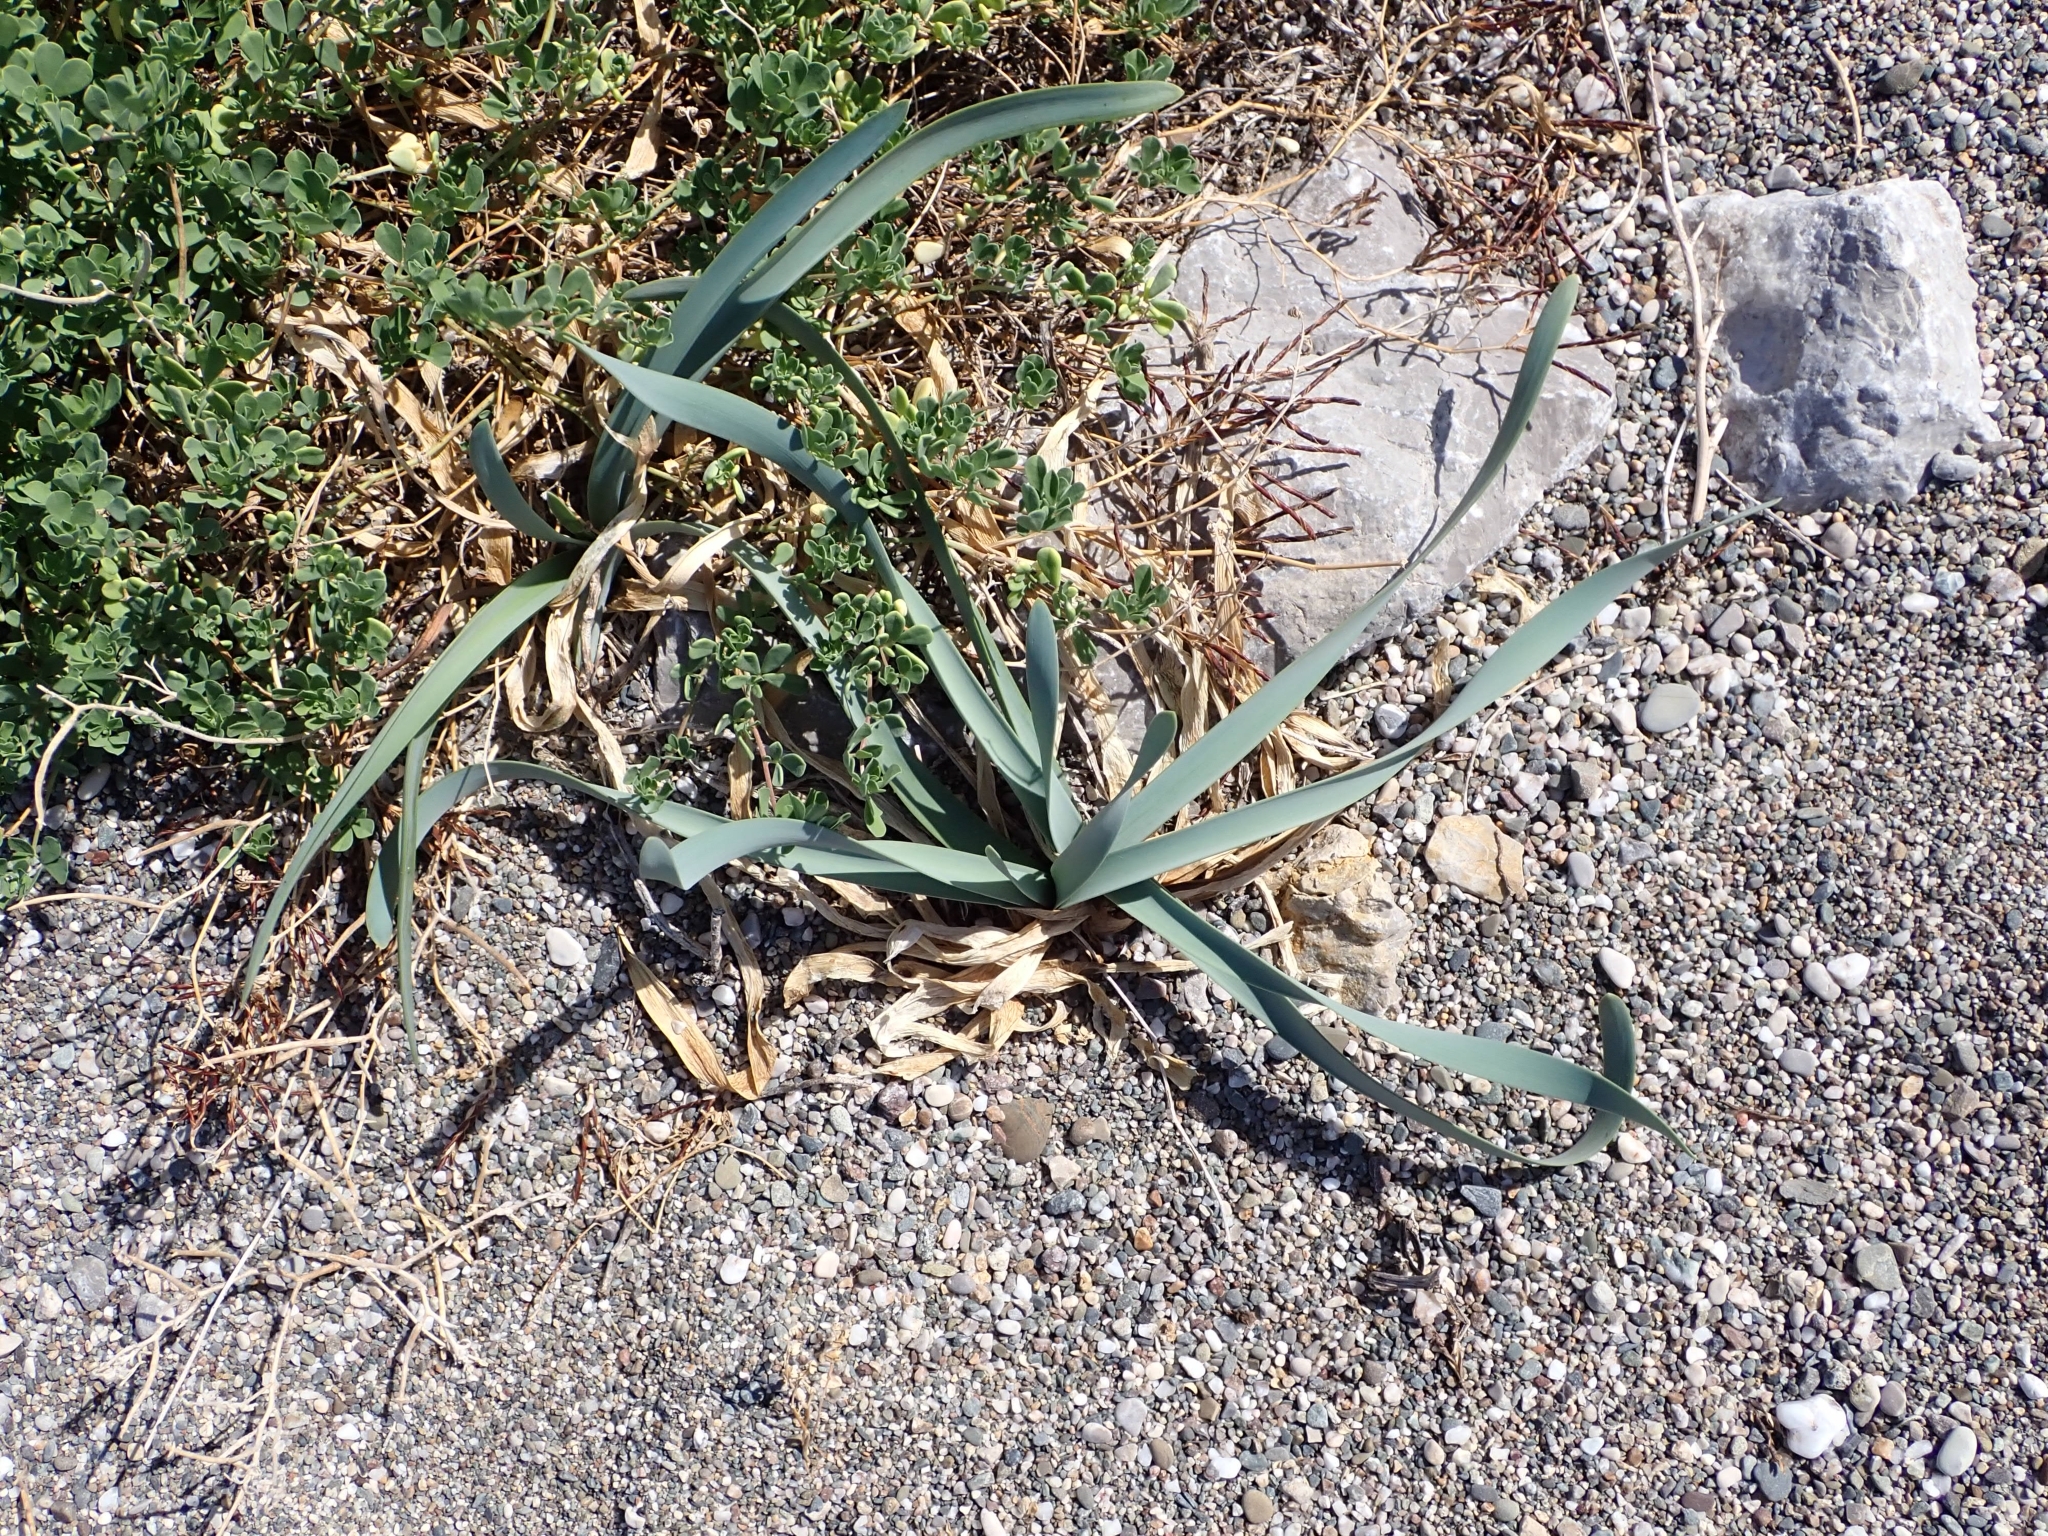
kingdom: Plantae
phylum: Tracheophyta
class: Liliopsida
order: Asparagales
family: Amaryllidaceae
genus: Pancratium
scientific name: Pancratium maritimum
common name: Sea-daffodil
